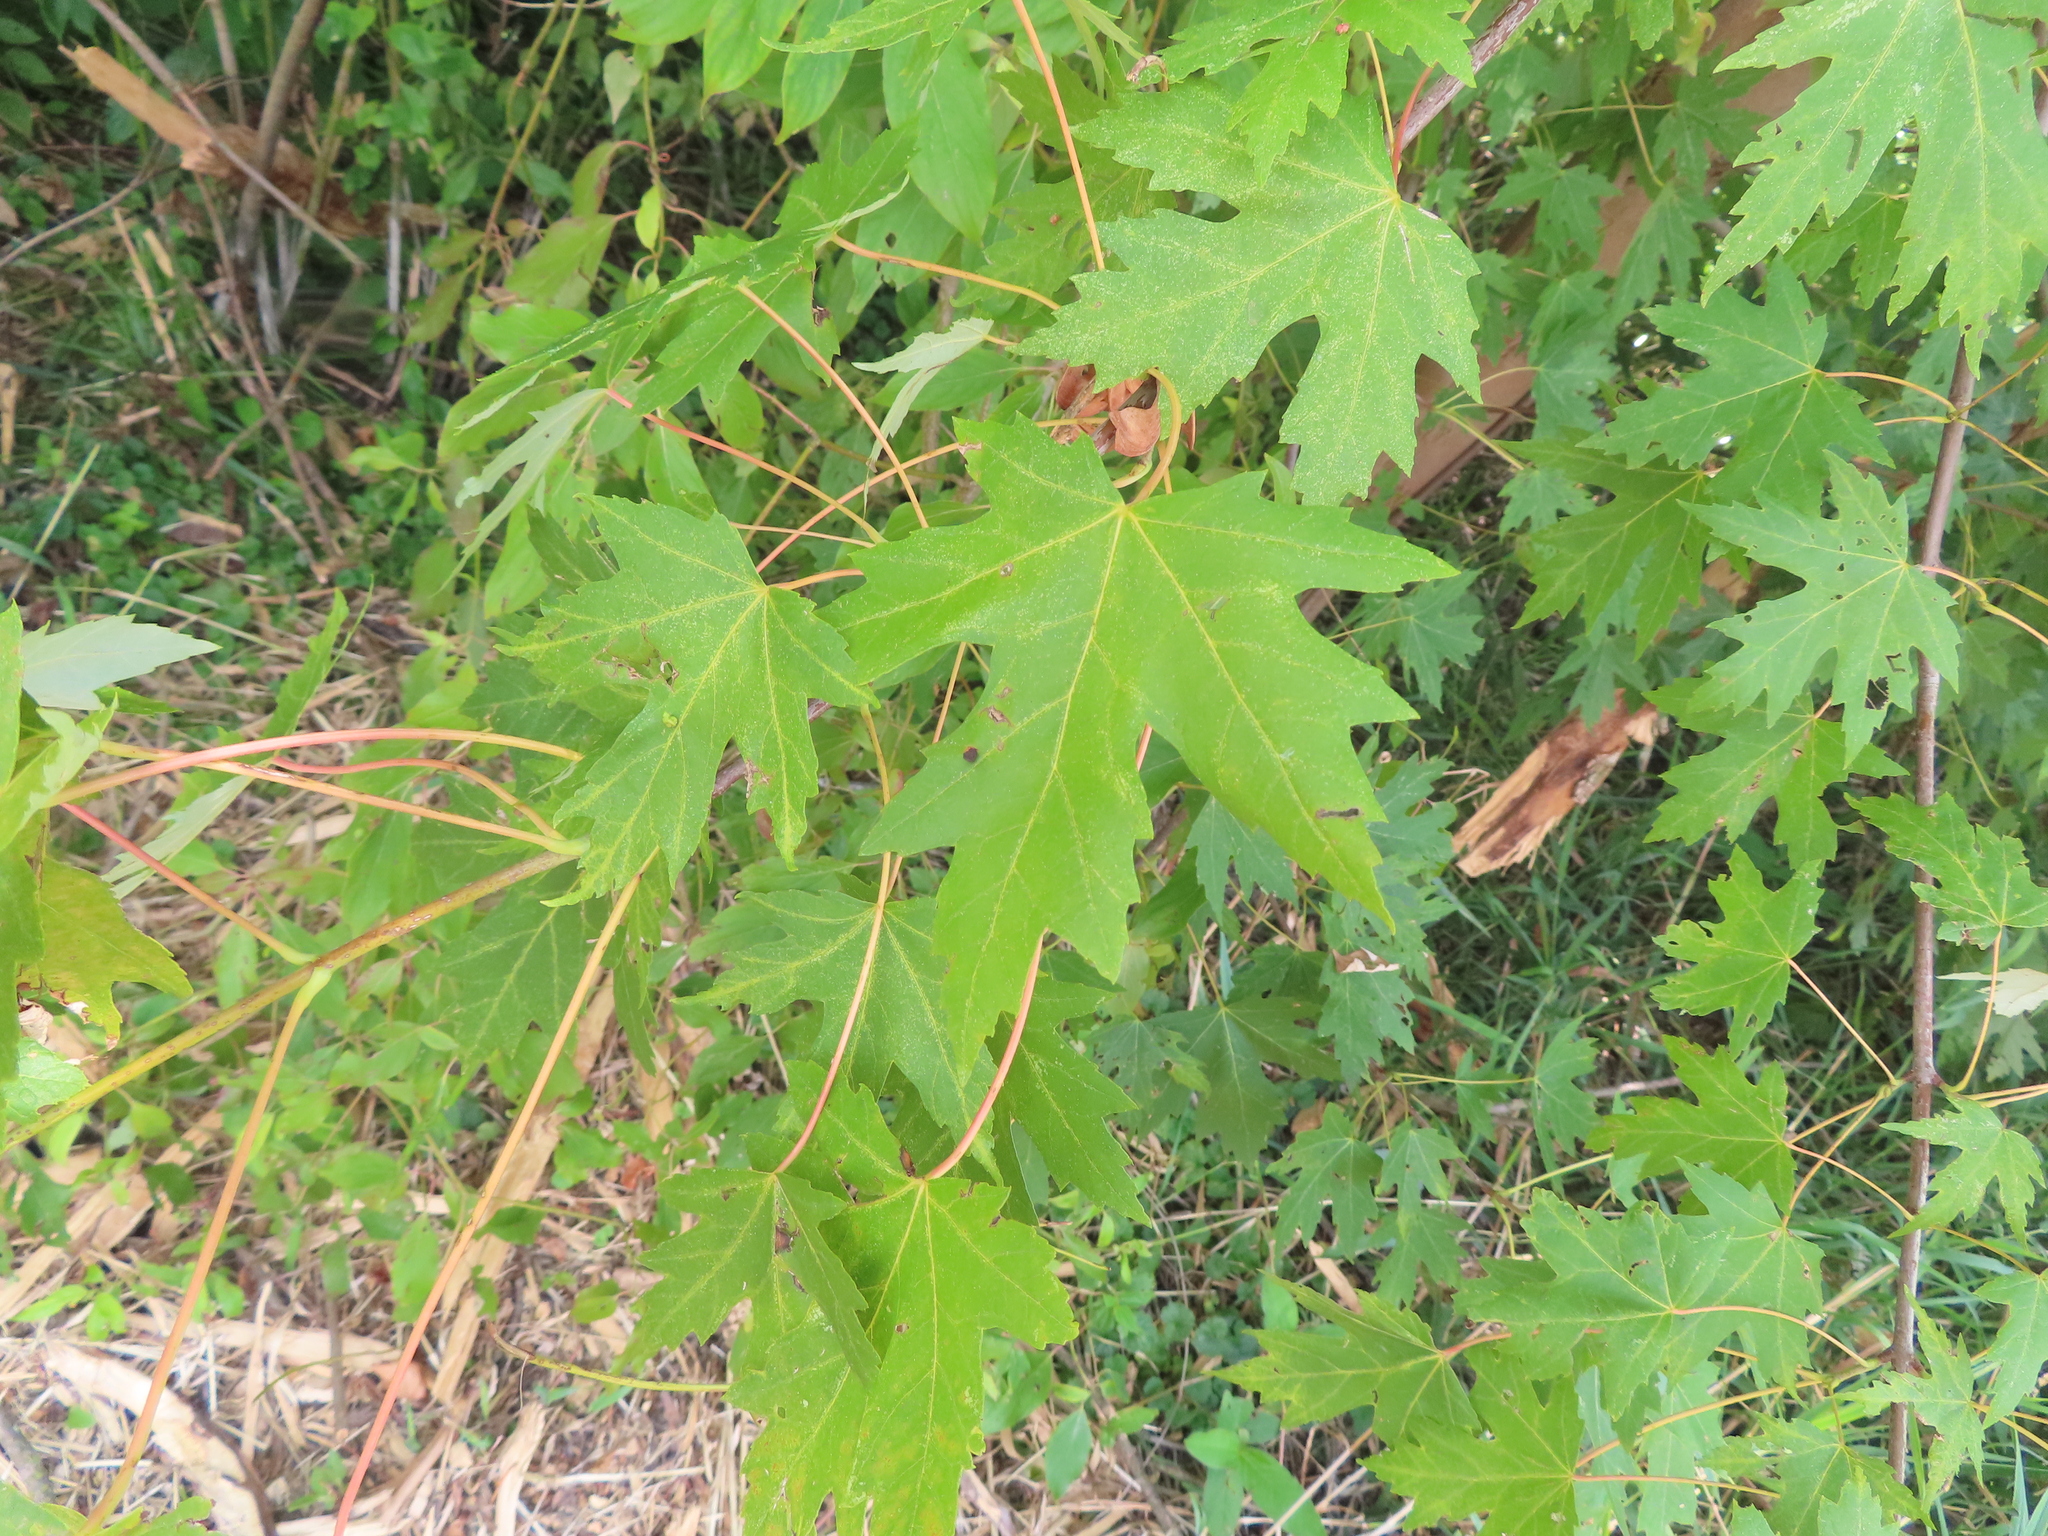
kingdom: Plantae
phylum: Tracheophyta
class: Magnoliopsida
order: Sapindales
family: Sapindaceae
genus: Acer
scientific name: Acer saccharinum
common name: Silver maple
